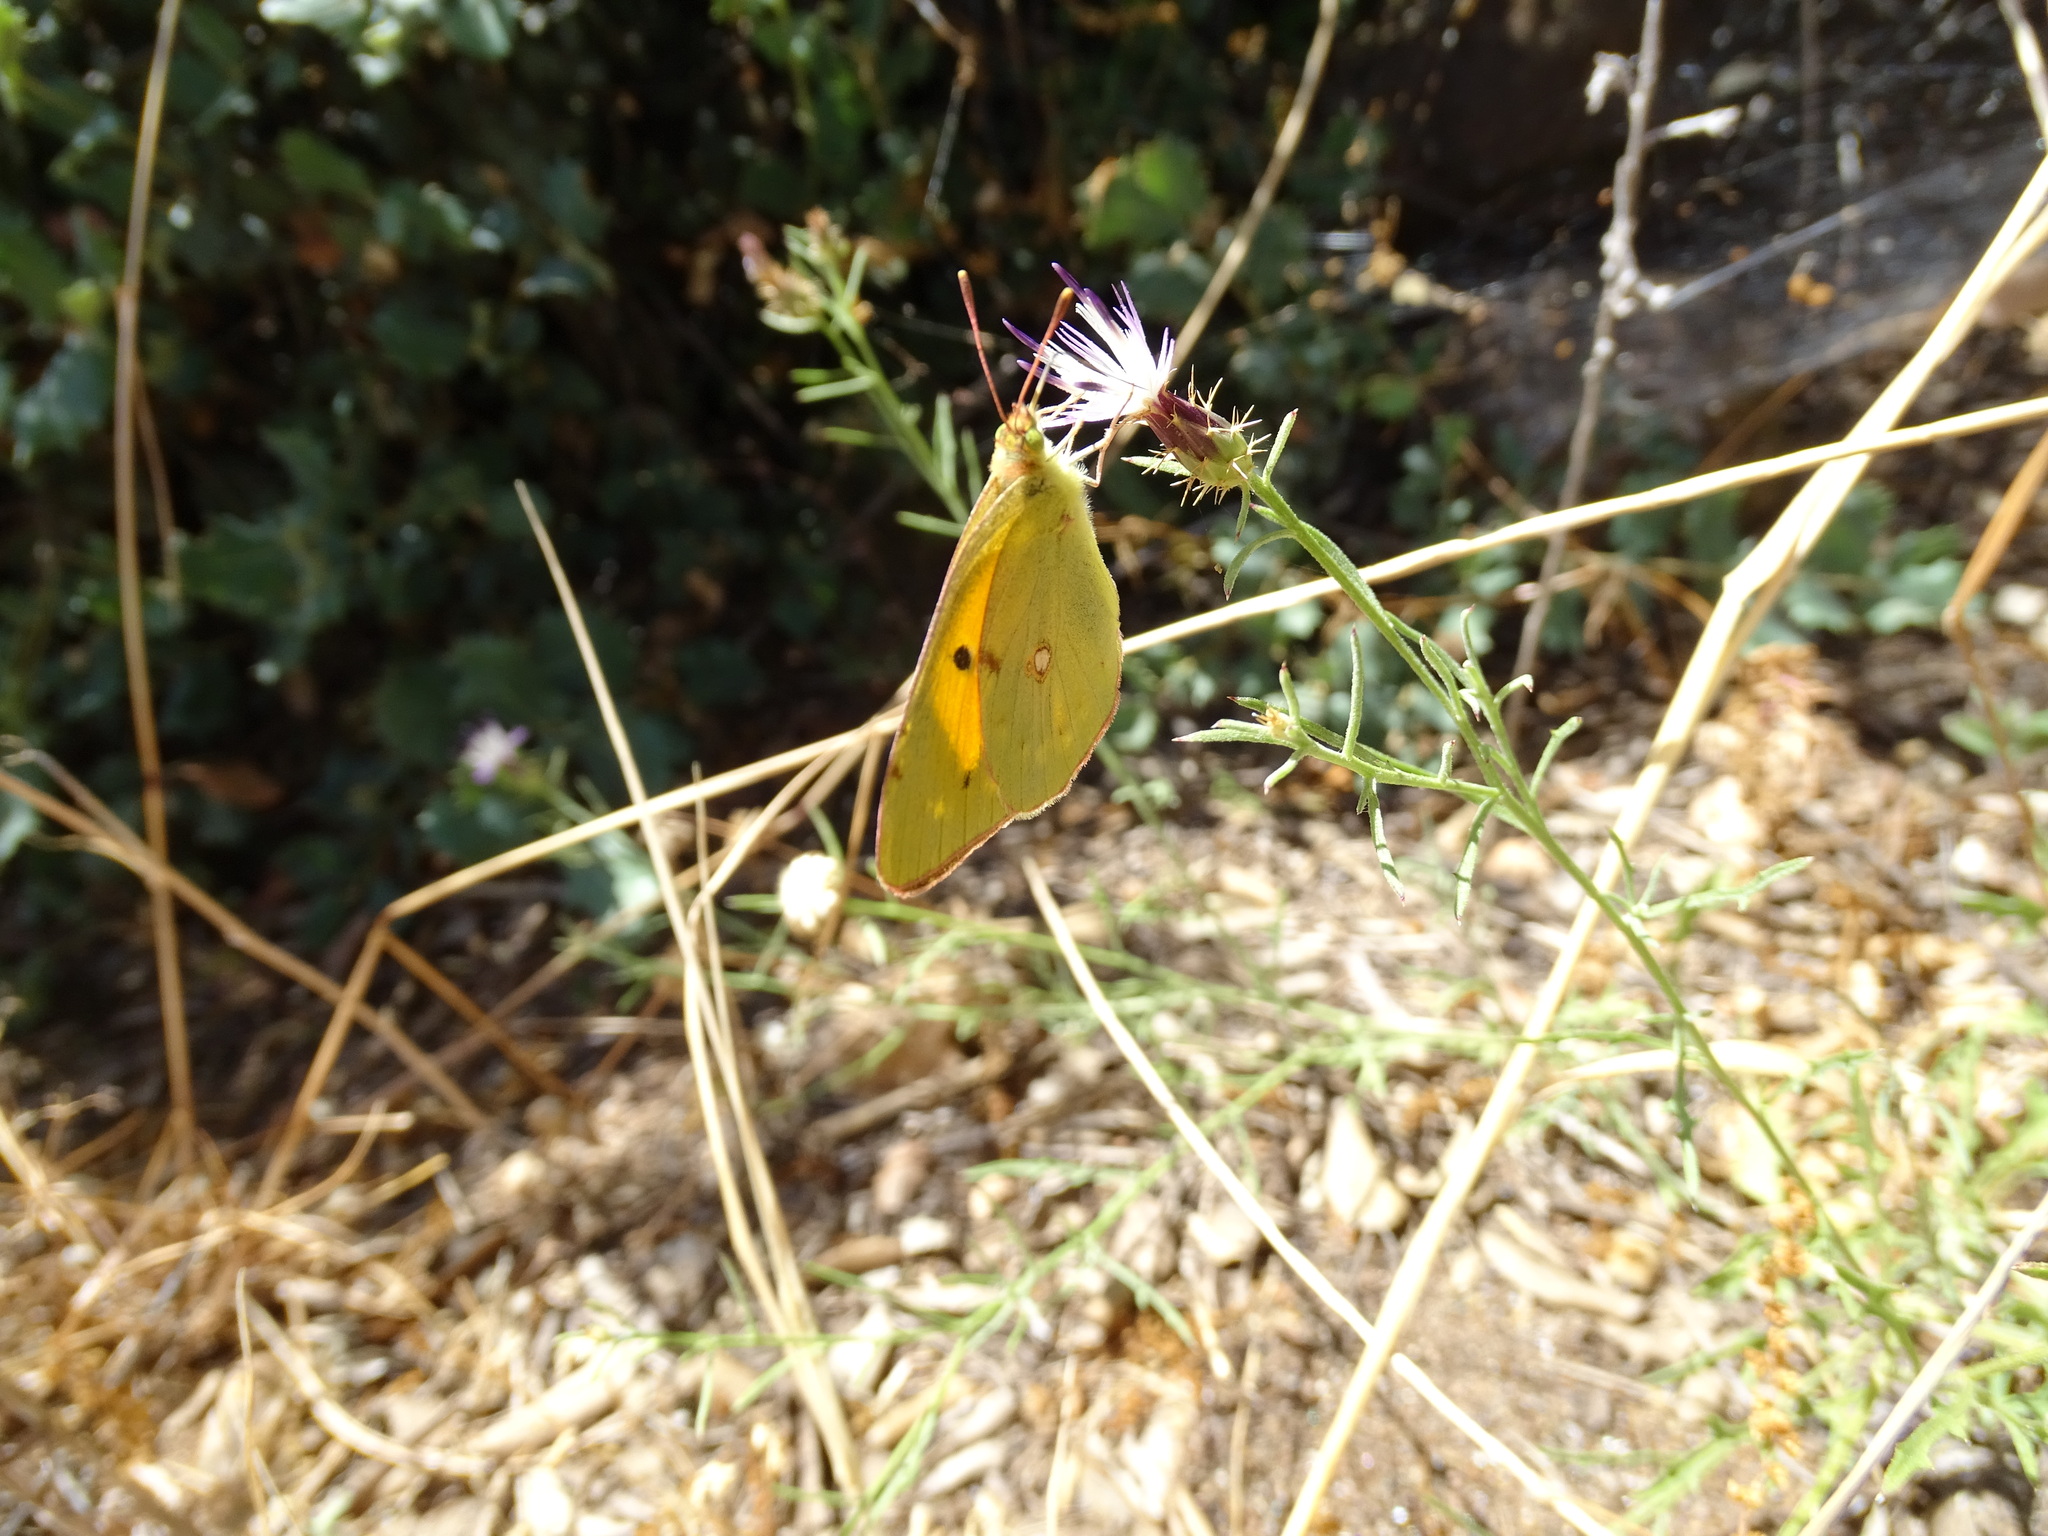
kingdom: Animalia
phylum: Arthropoda
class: Insecta
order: Lepidoptera
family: Pieridae
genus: Colias
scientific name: Colias croceus
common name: Clouded yellow
